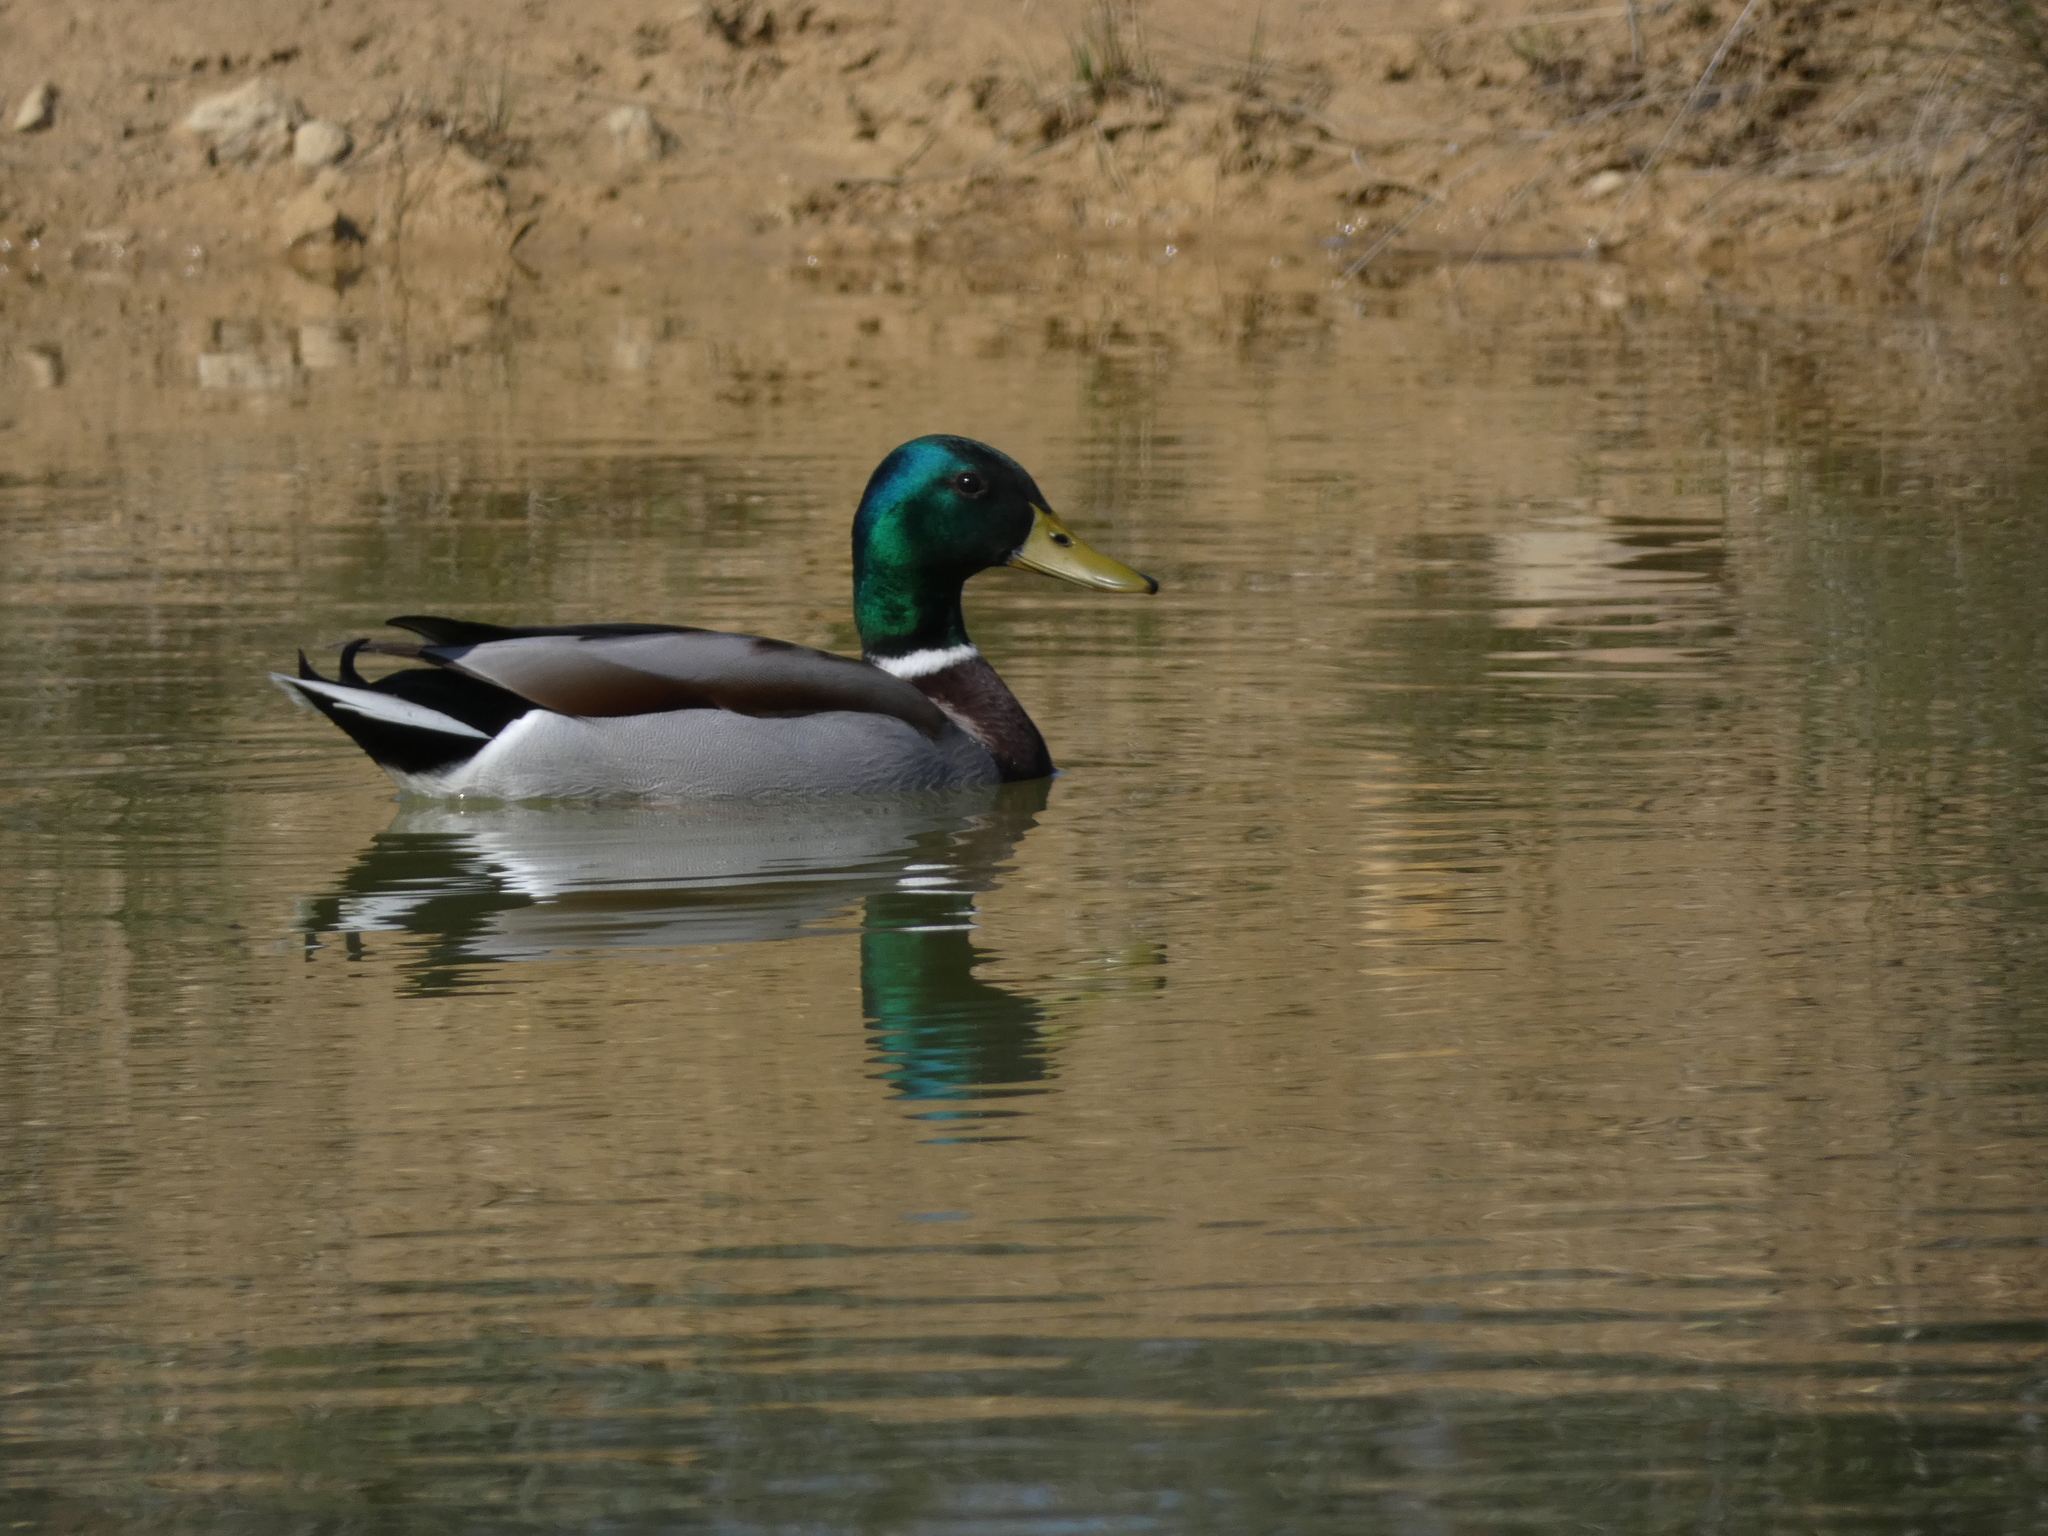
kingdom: Animalia
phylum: Chordata
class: Aves
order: Anseriformes
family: Anatidae
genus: Anas
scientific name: Anas platyrhynchos
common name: Mallard
